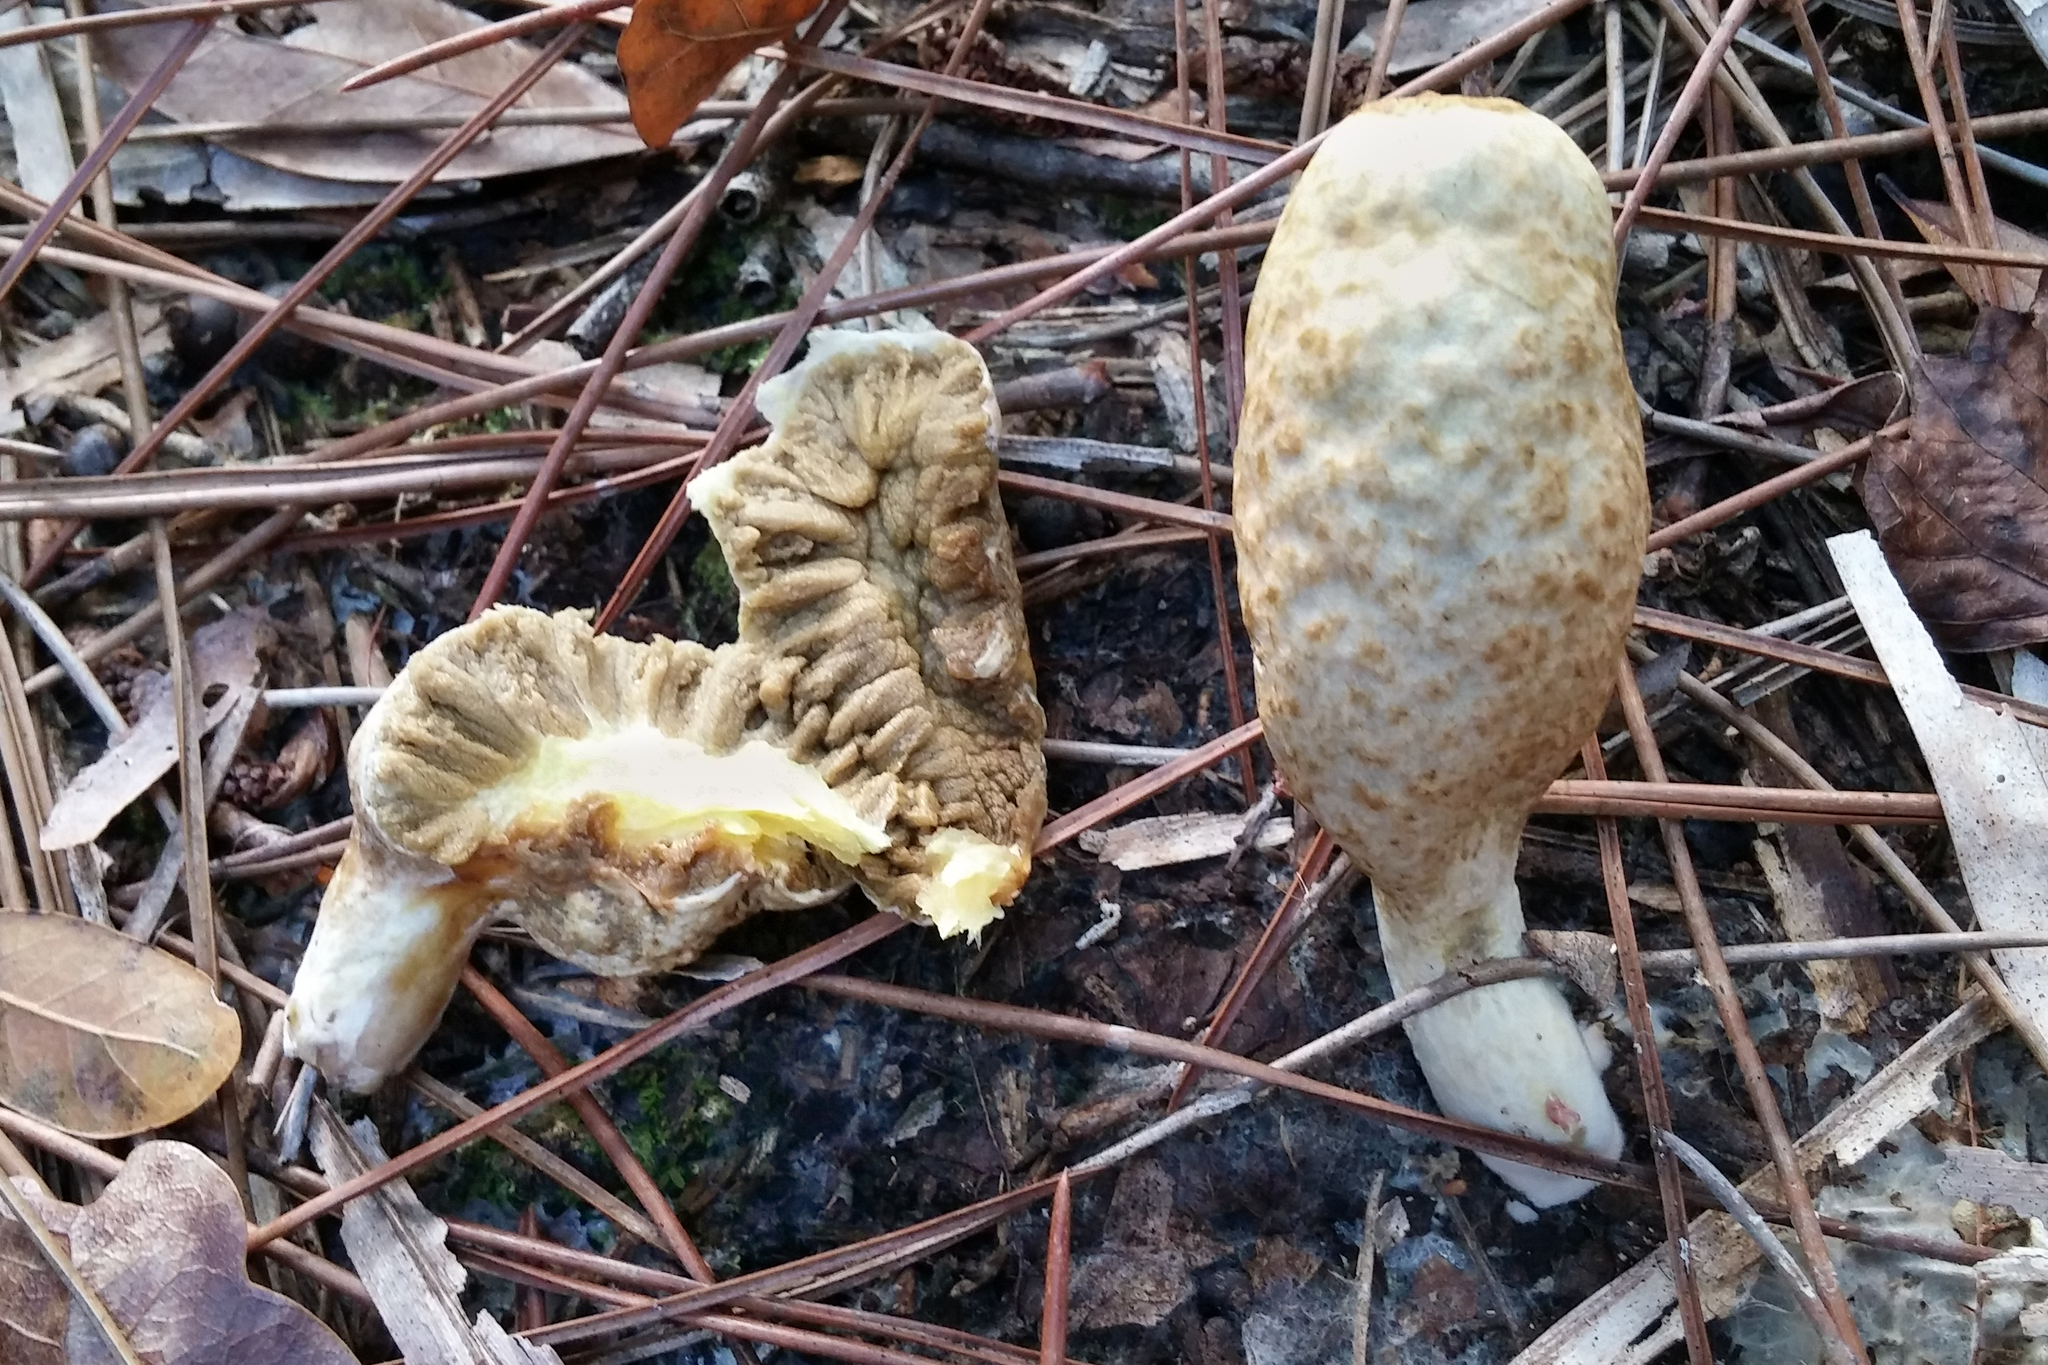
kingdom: Fungi
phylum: Basidiomycota
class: Agaricomycetes
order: Boletales
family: Rhizopogonaceae
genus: Rhopalogaster
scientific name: Rhopalogaster transversarius
